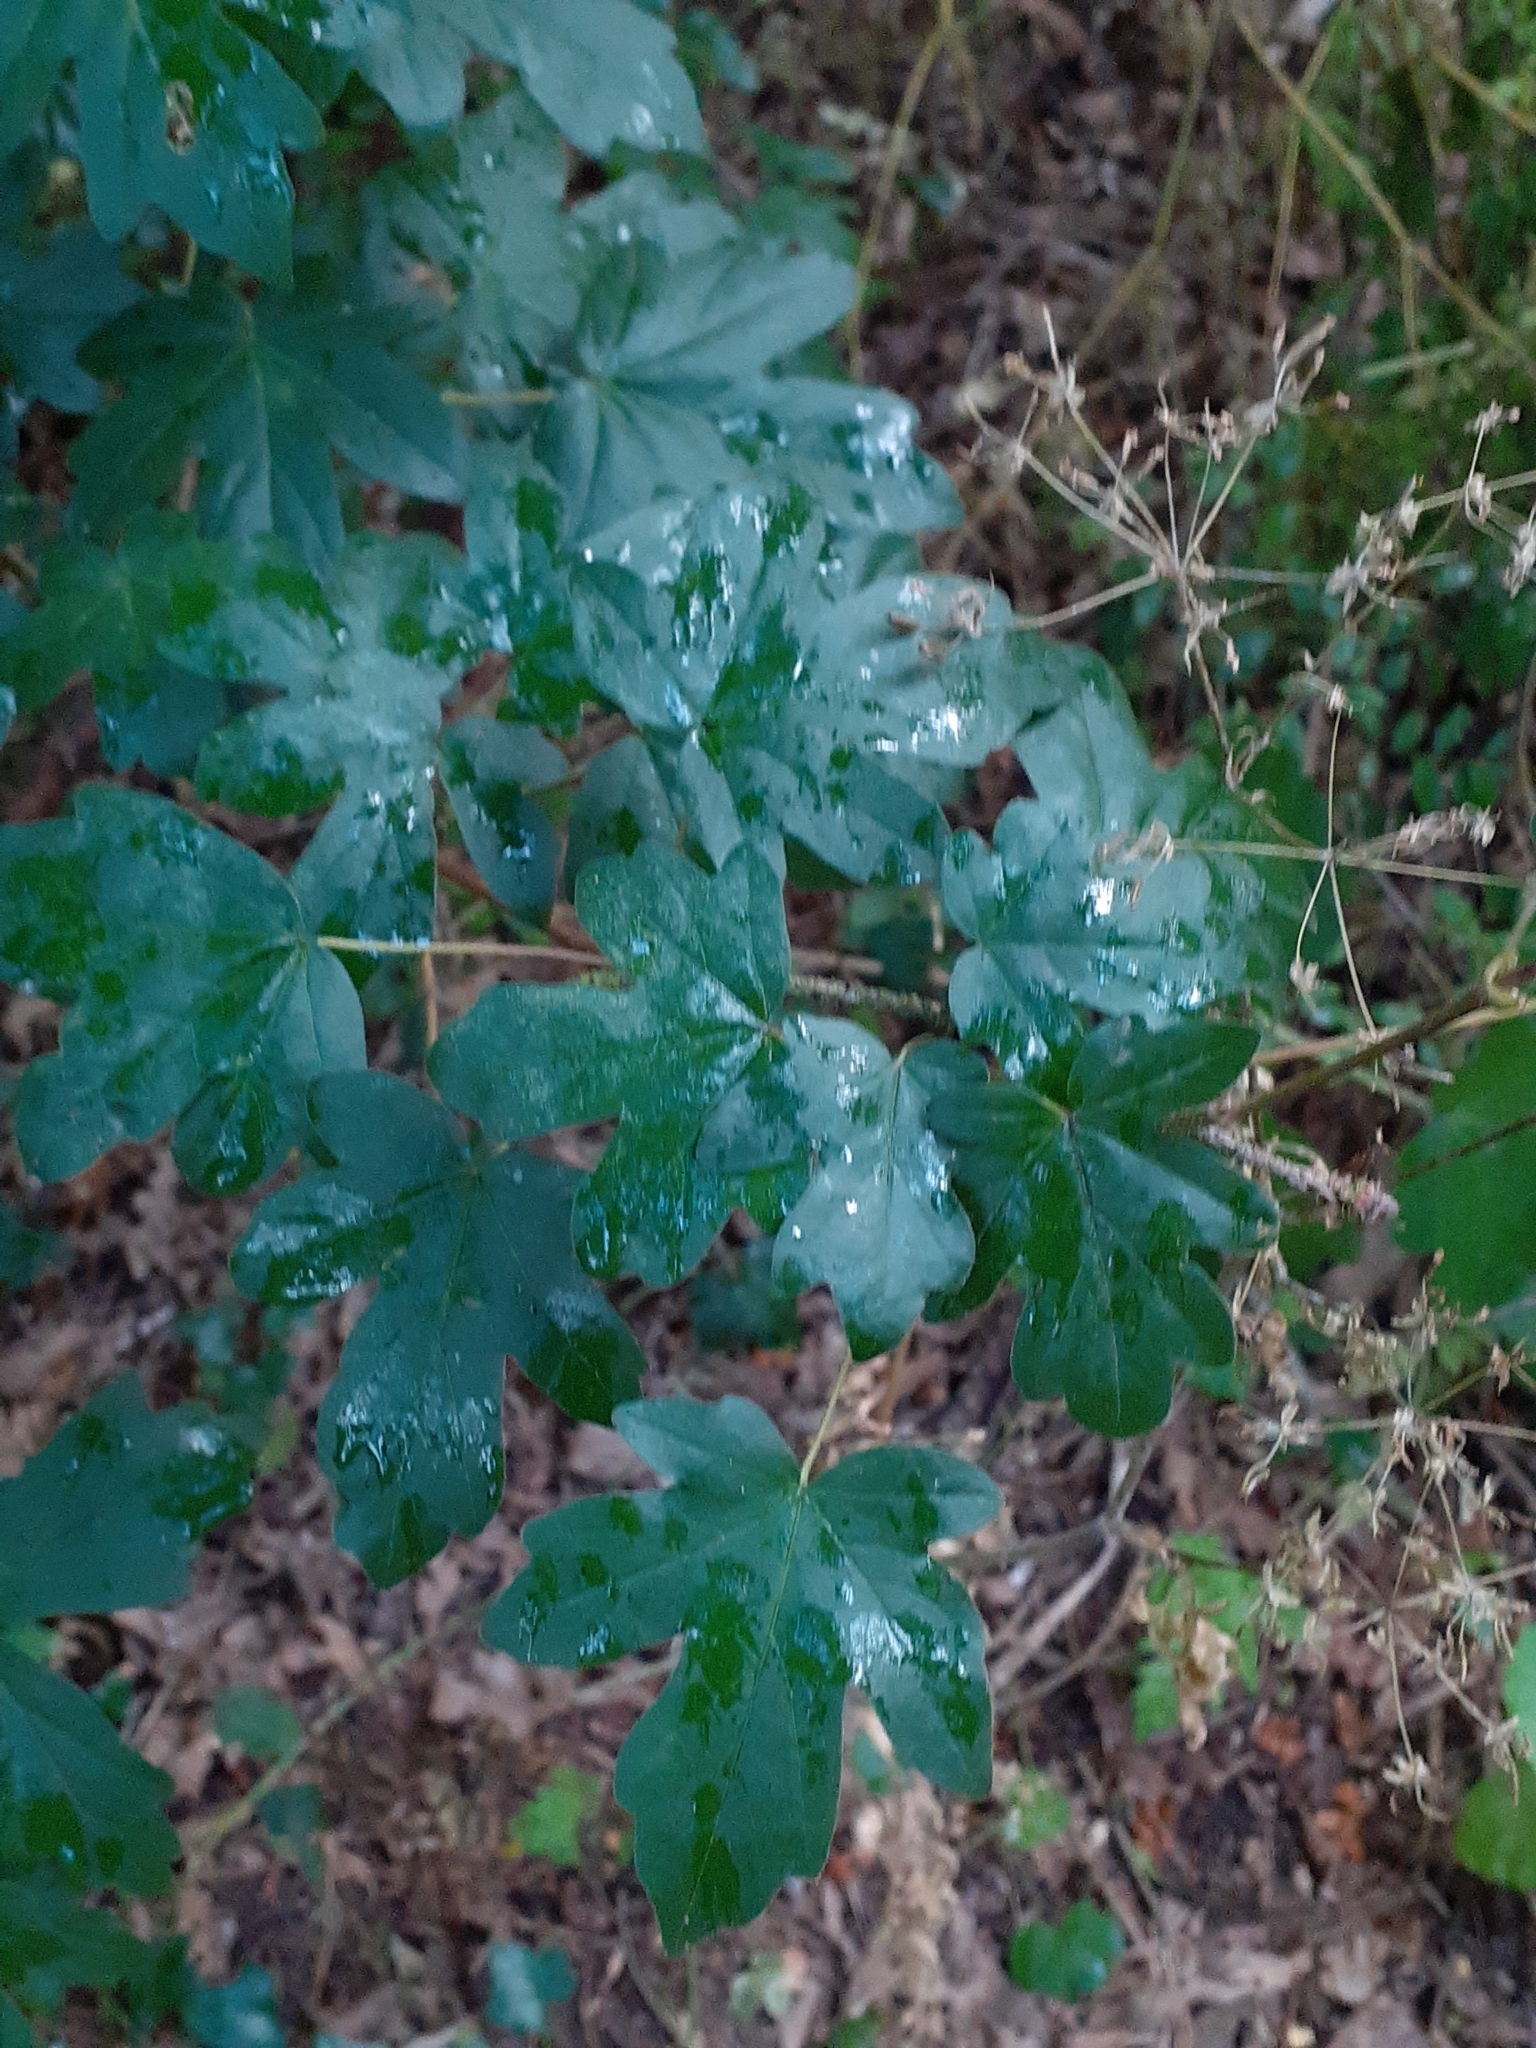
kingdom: Plantae
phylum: Tracheophyta
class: Magnoliopsida
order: Sapindales
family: Sapindaceae
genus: Acer
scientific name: Acer campestre
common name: Field maple
